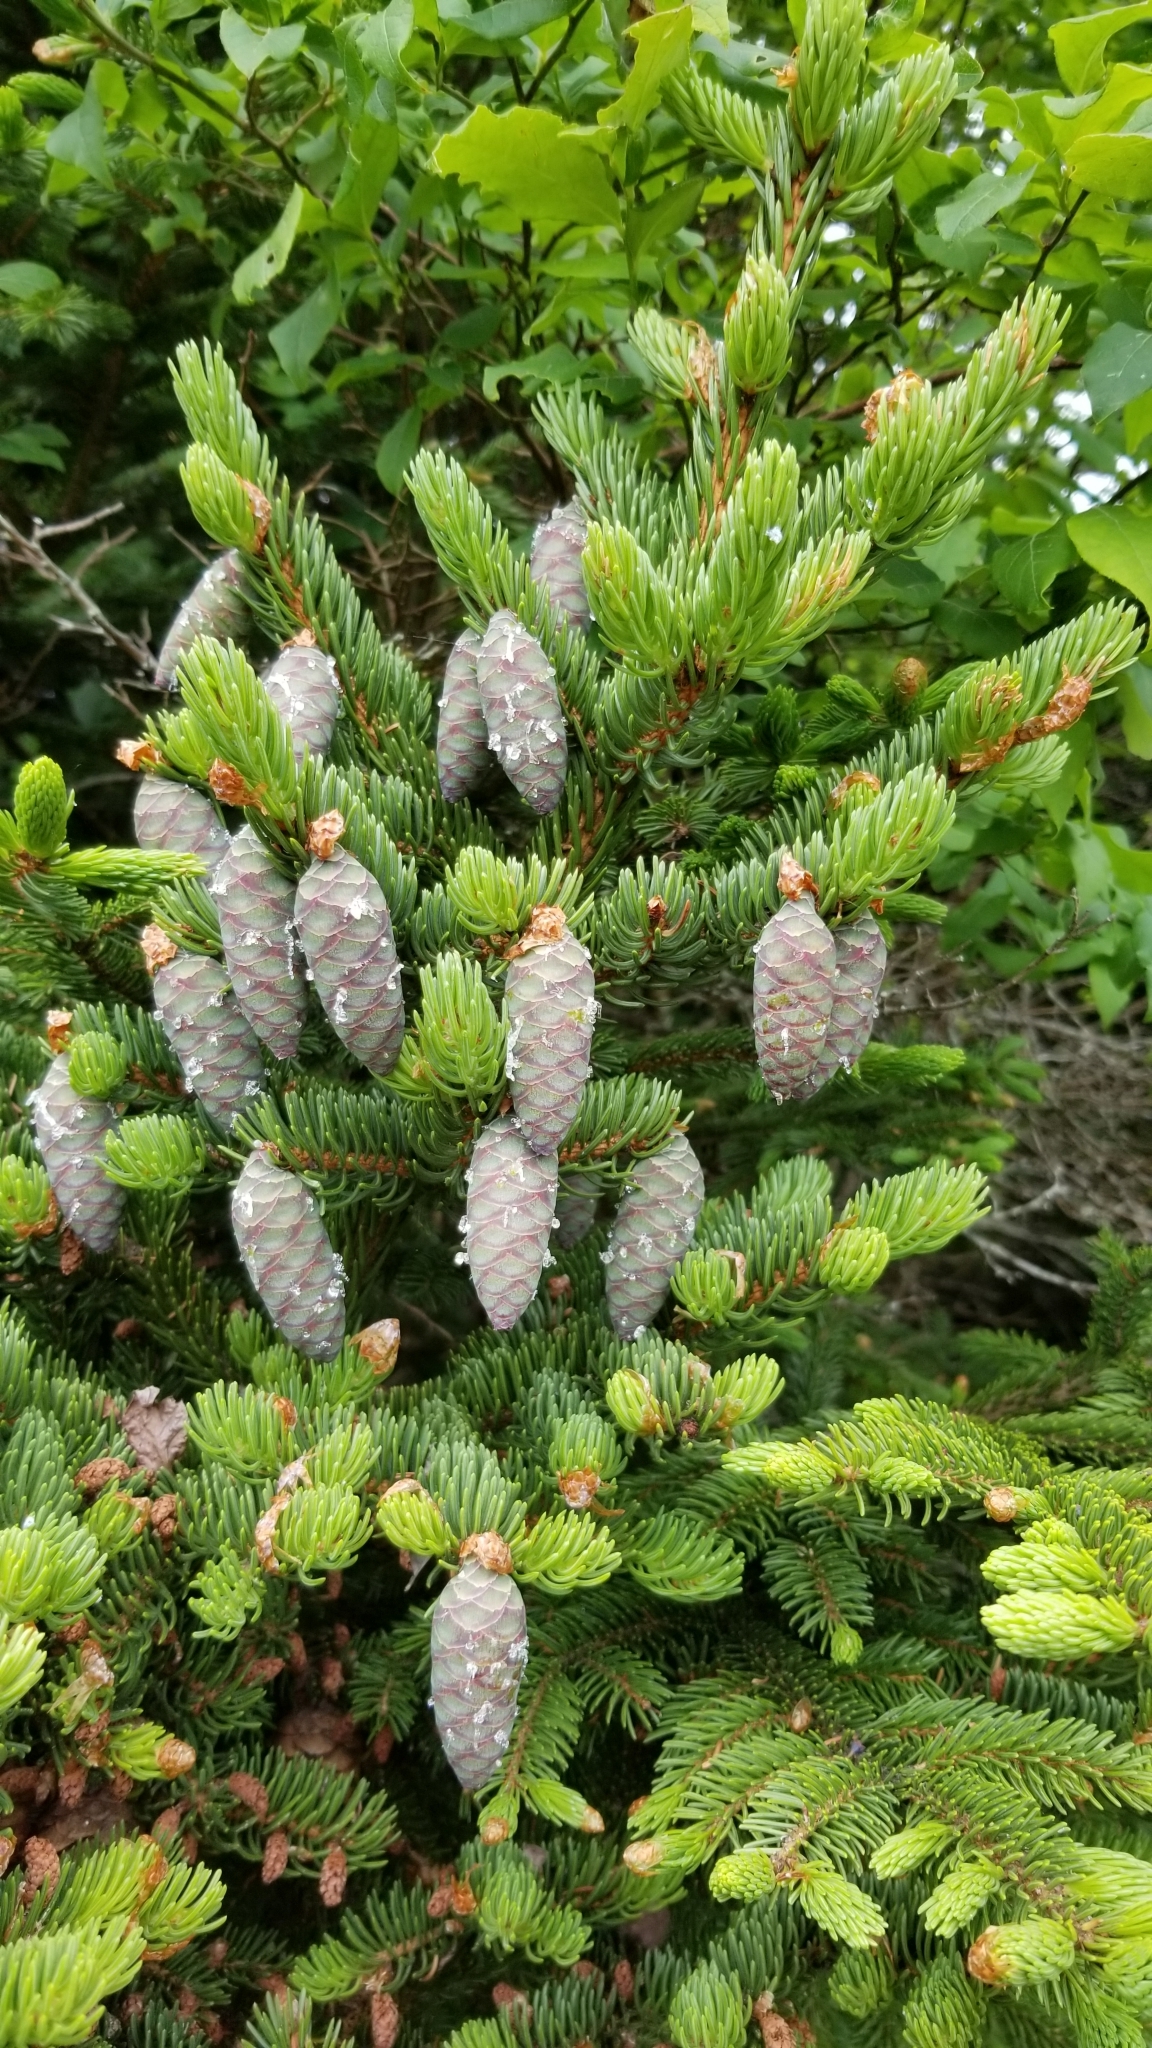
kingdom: Plantae
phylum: Tracheophyta
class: Pinopsida
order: Pinales
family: Pinaceae
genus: Picea
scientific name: Picea rubens
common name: Red spruce
